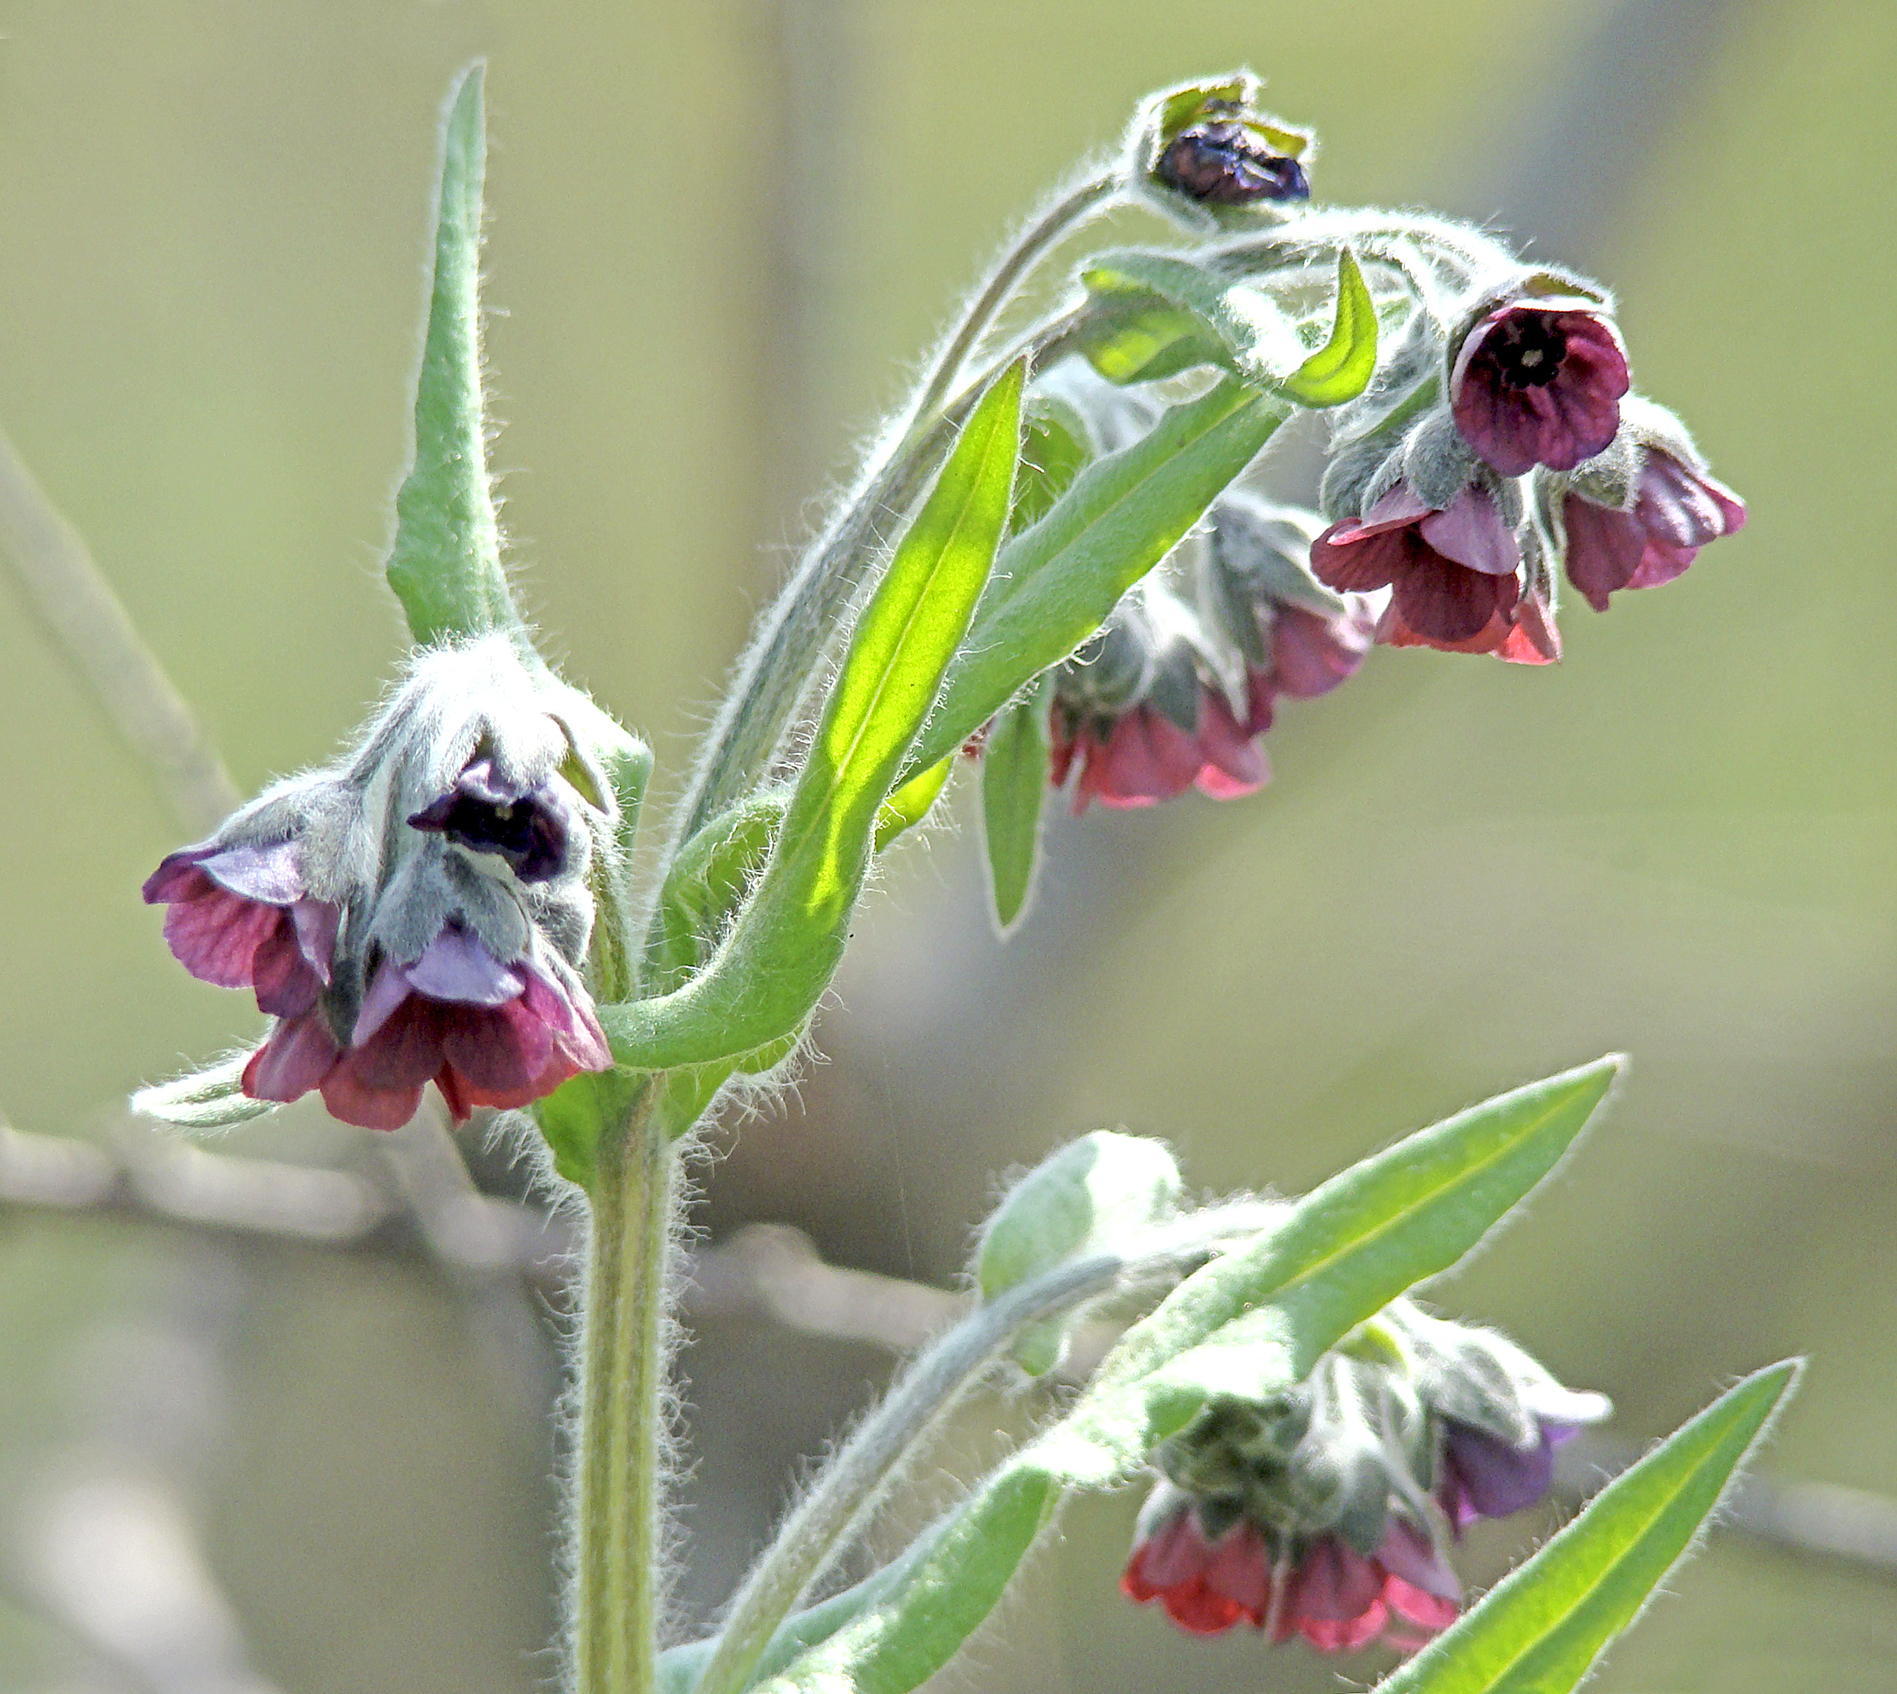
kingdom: Plantae
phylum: Tracheophyta
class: Magnoliopsida
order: Boraginales
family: Boraginaceae
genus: Cynoglossum
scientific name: Cynoglossum officinale
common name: Hound's-tongue
